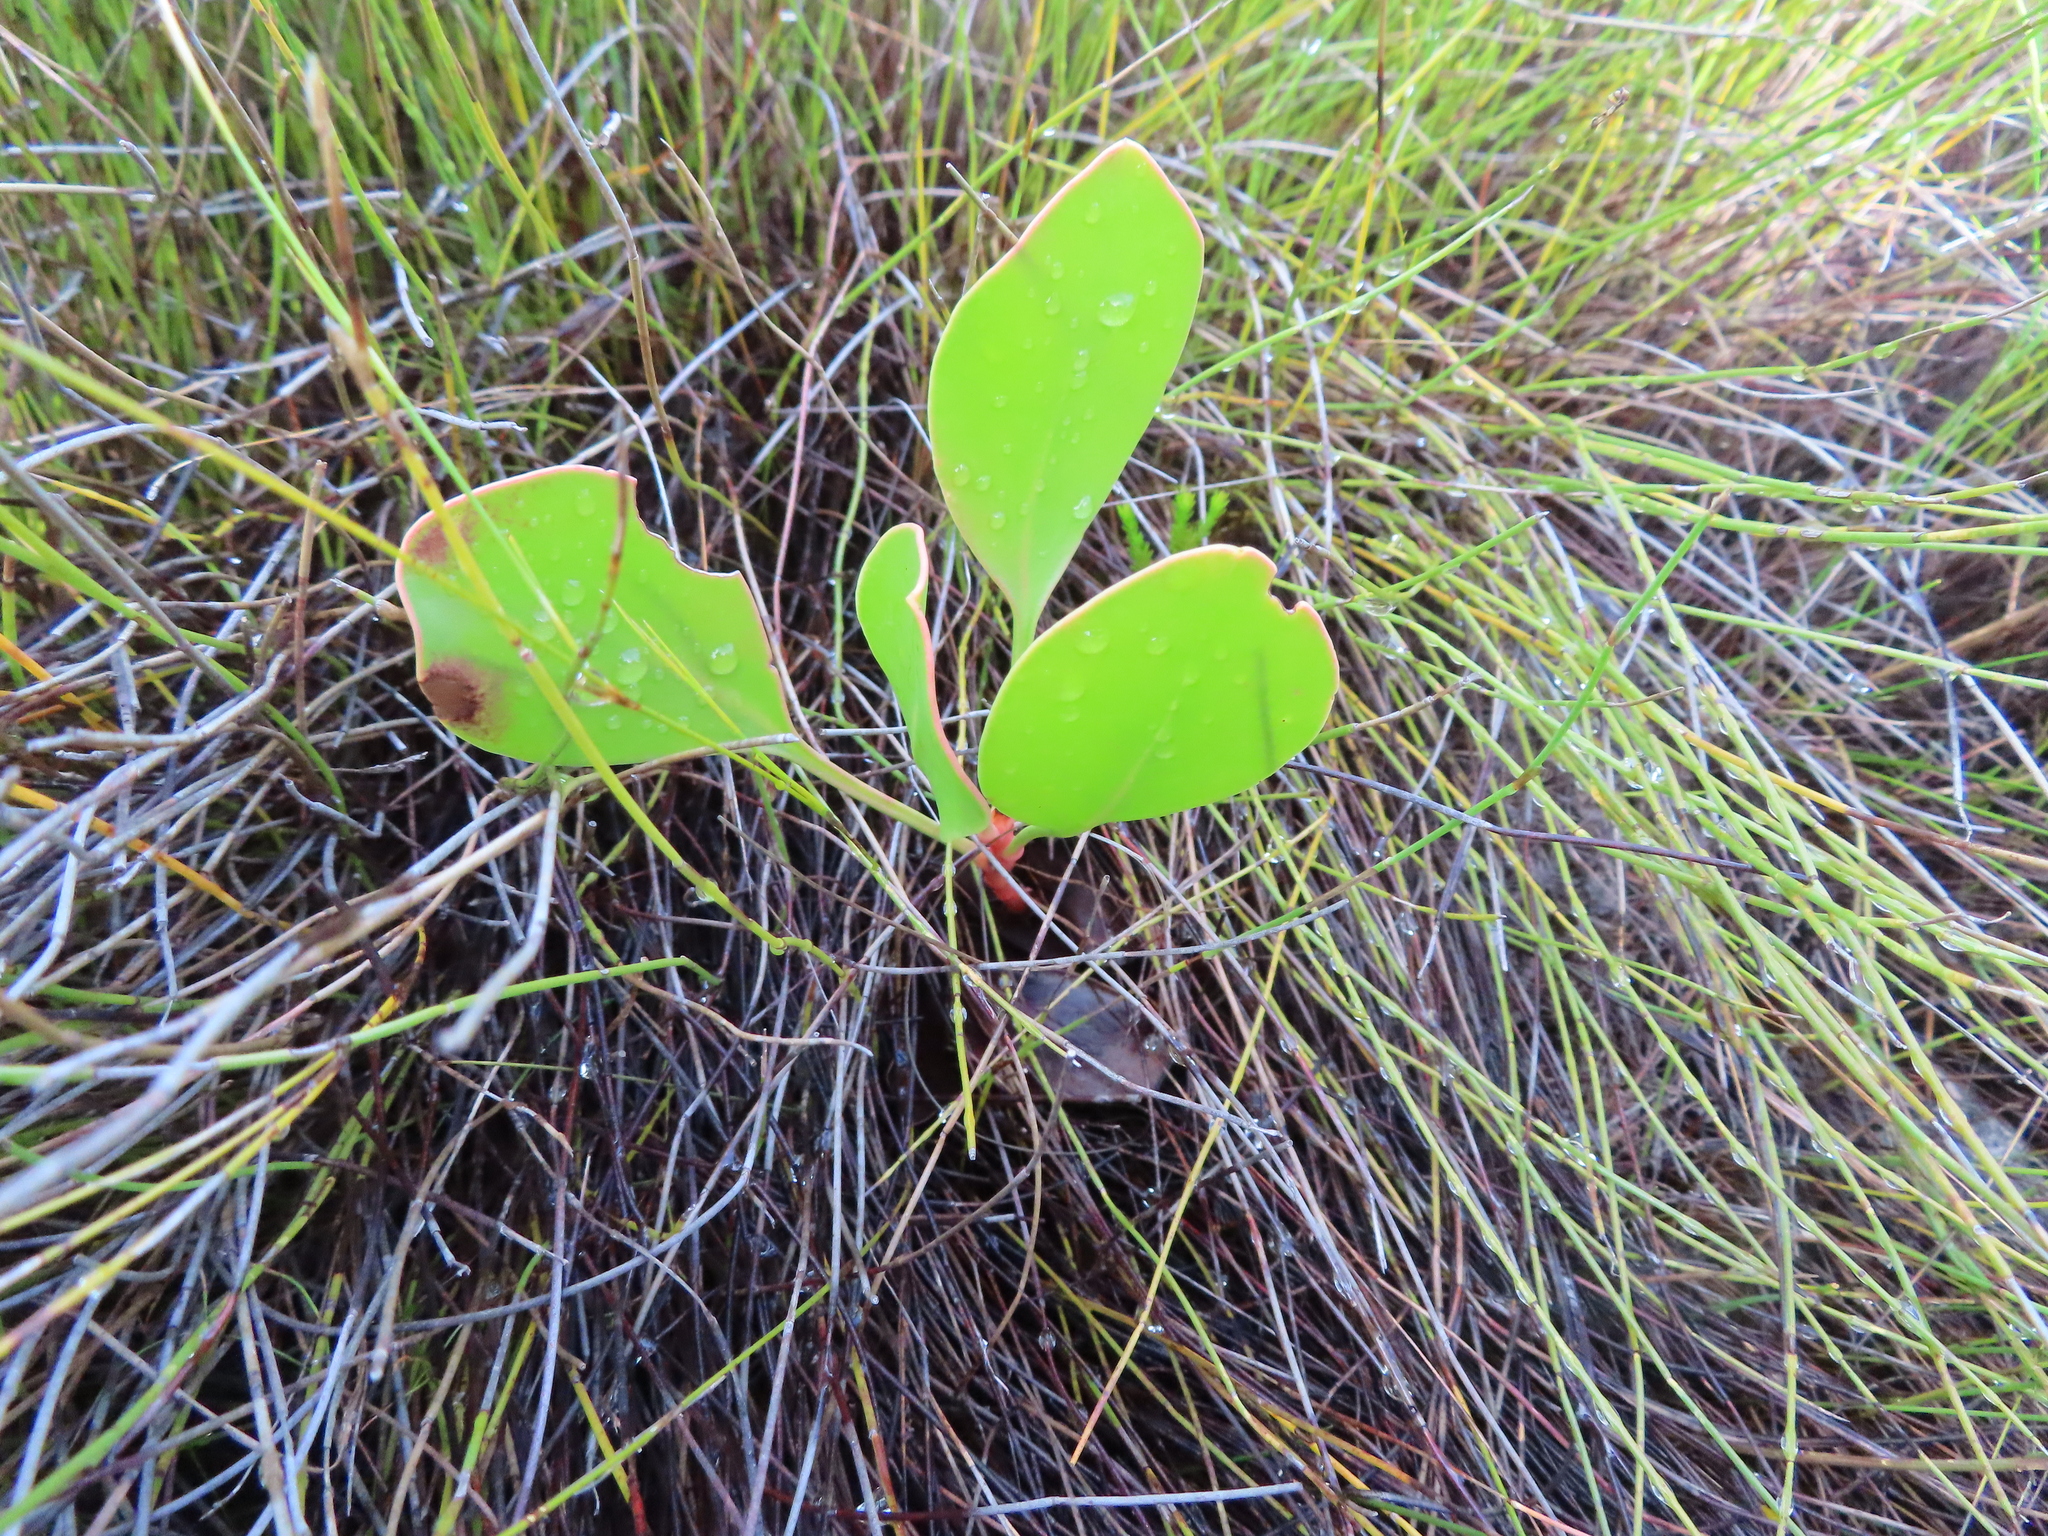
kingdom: Plantae
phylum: Tracheophyta
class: Magnoliopsida
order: Proteales
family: Proteaceae
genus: Protea
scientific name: Protea cynaroides
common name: King protea
